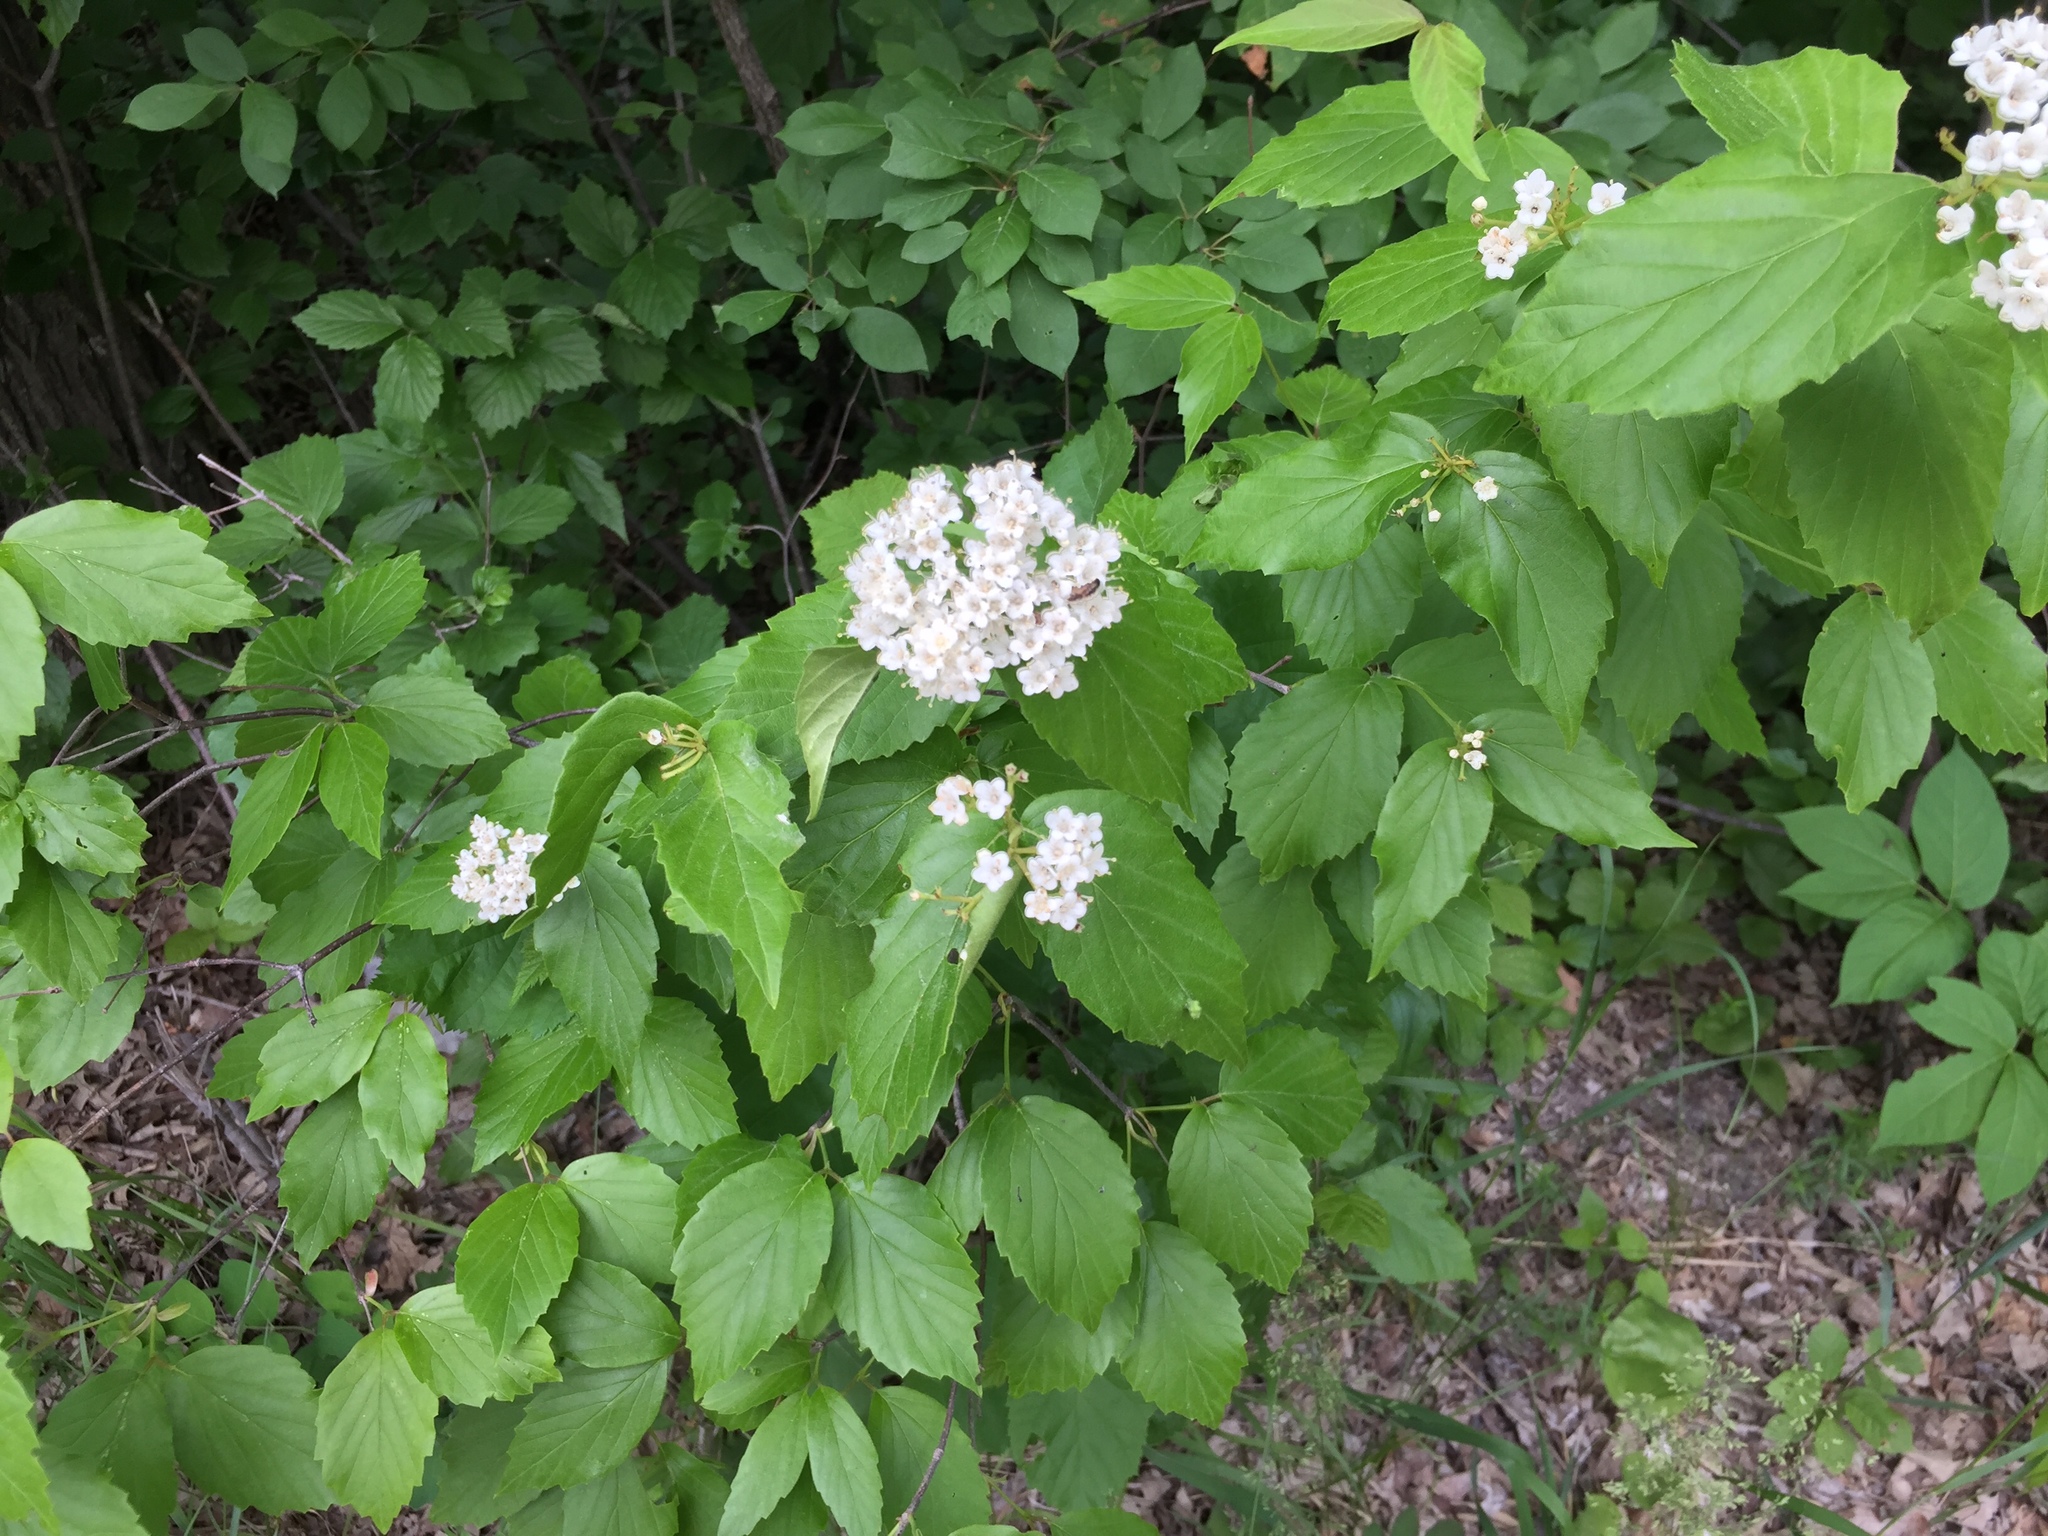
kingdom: Plantae
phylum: Tracheophyta
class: Magnoliopsida
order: Dipsacales
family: Viburnaceae
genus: Viburnum
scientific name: Viburnum rafinesqueanum
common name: Downy arrow-wood
